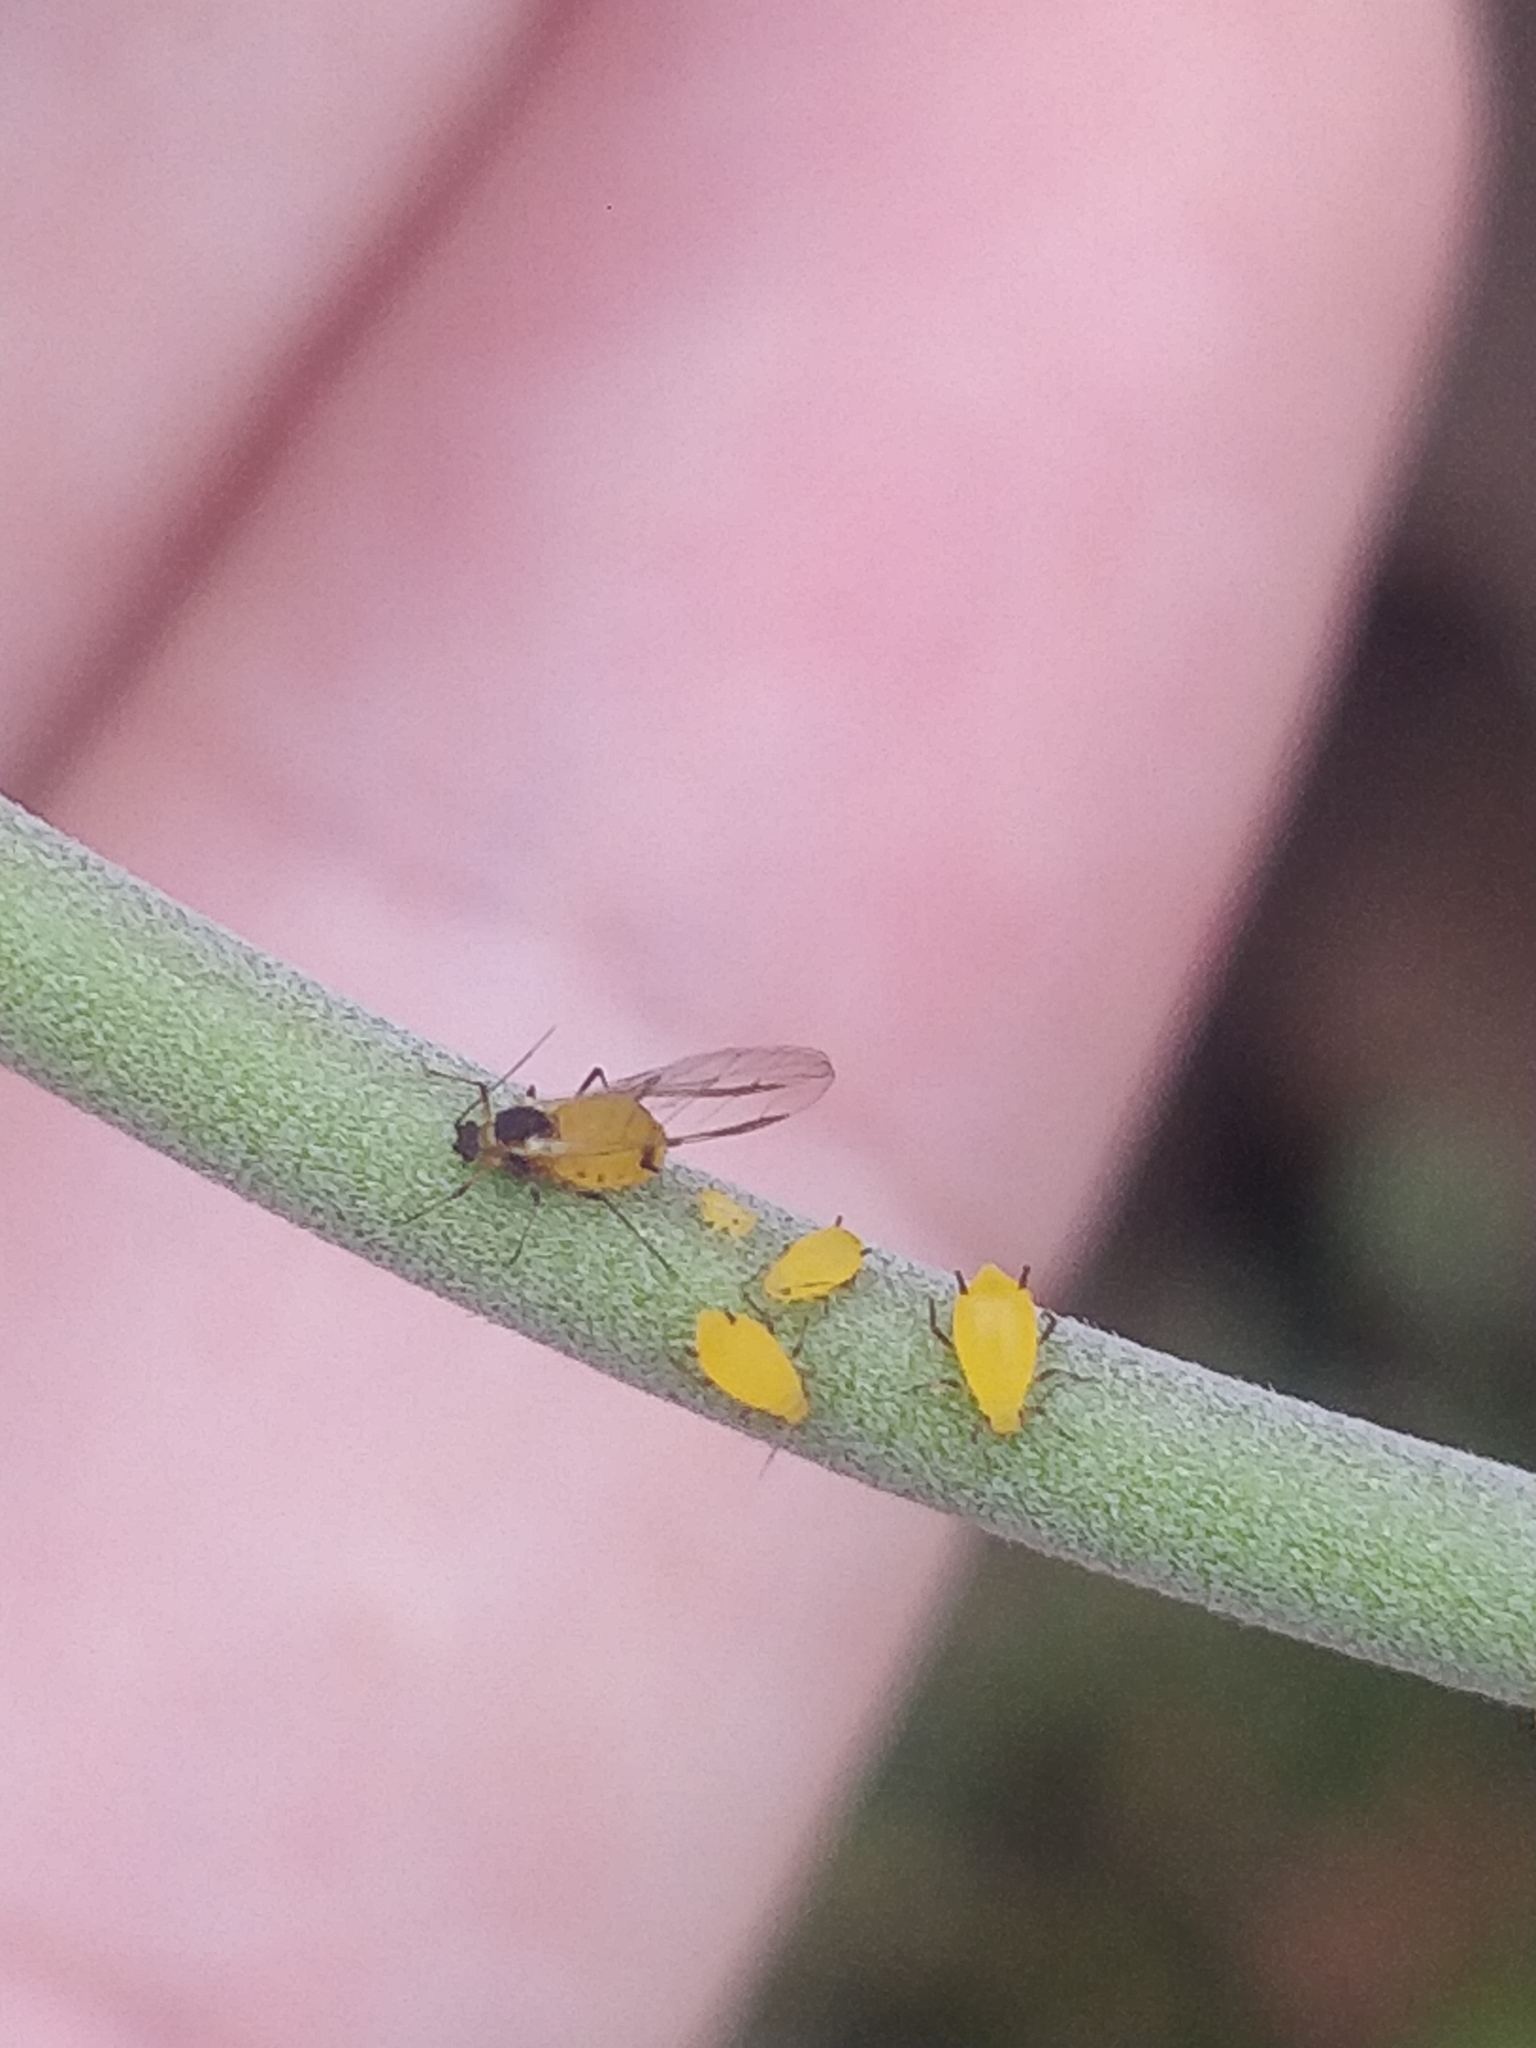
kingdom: Animalia
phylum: Arthropoda
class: Insecta
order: Hemiptera
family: Aphididae
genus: Aphis
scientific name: Aphis nerii
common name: Oleander aphid
